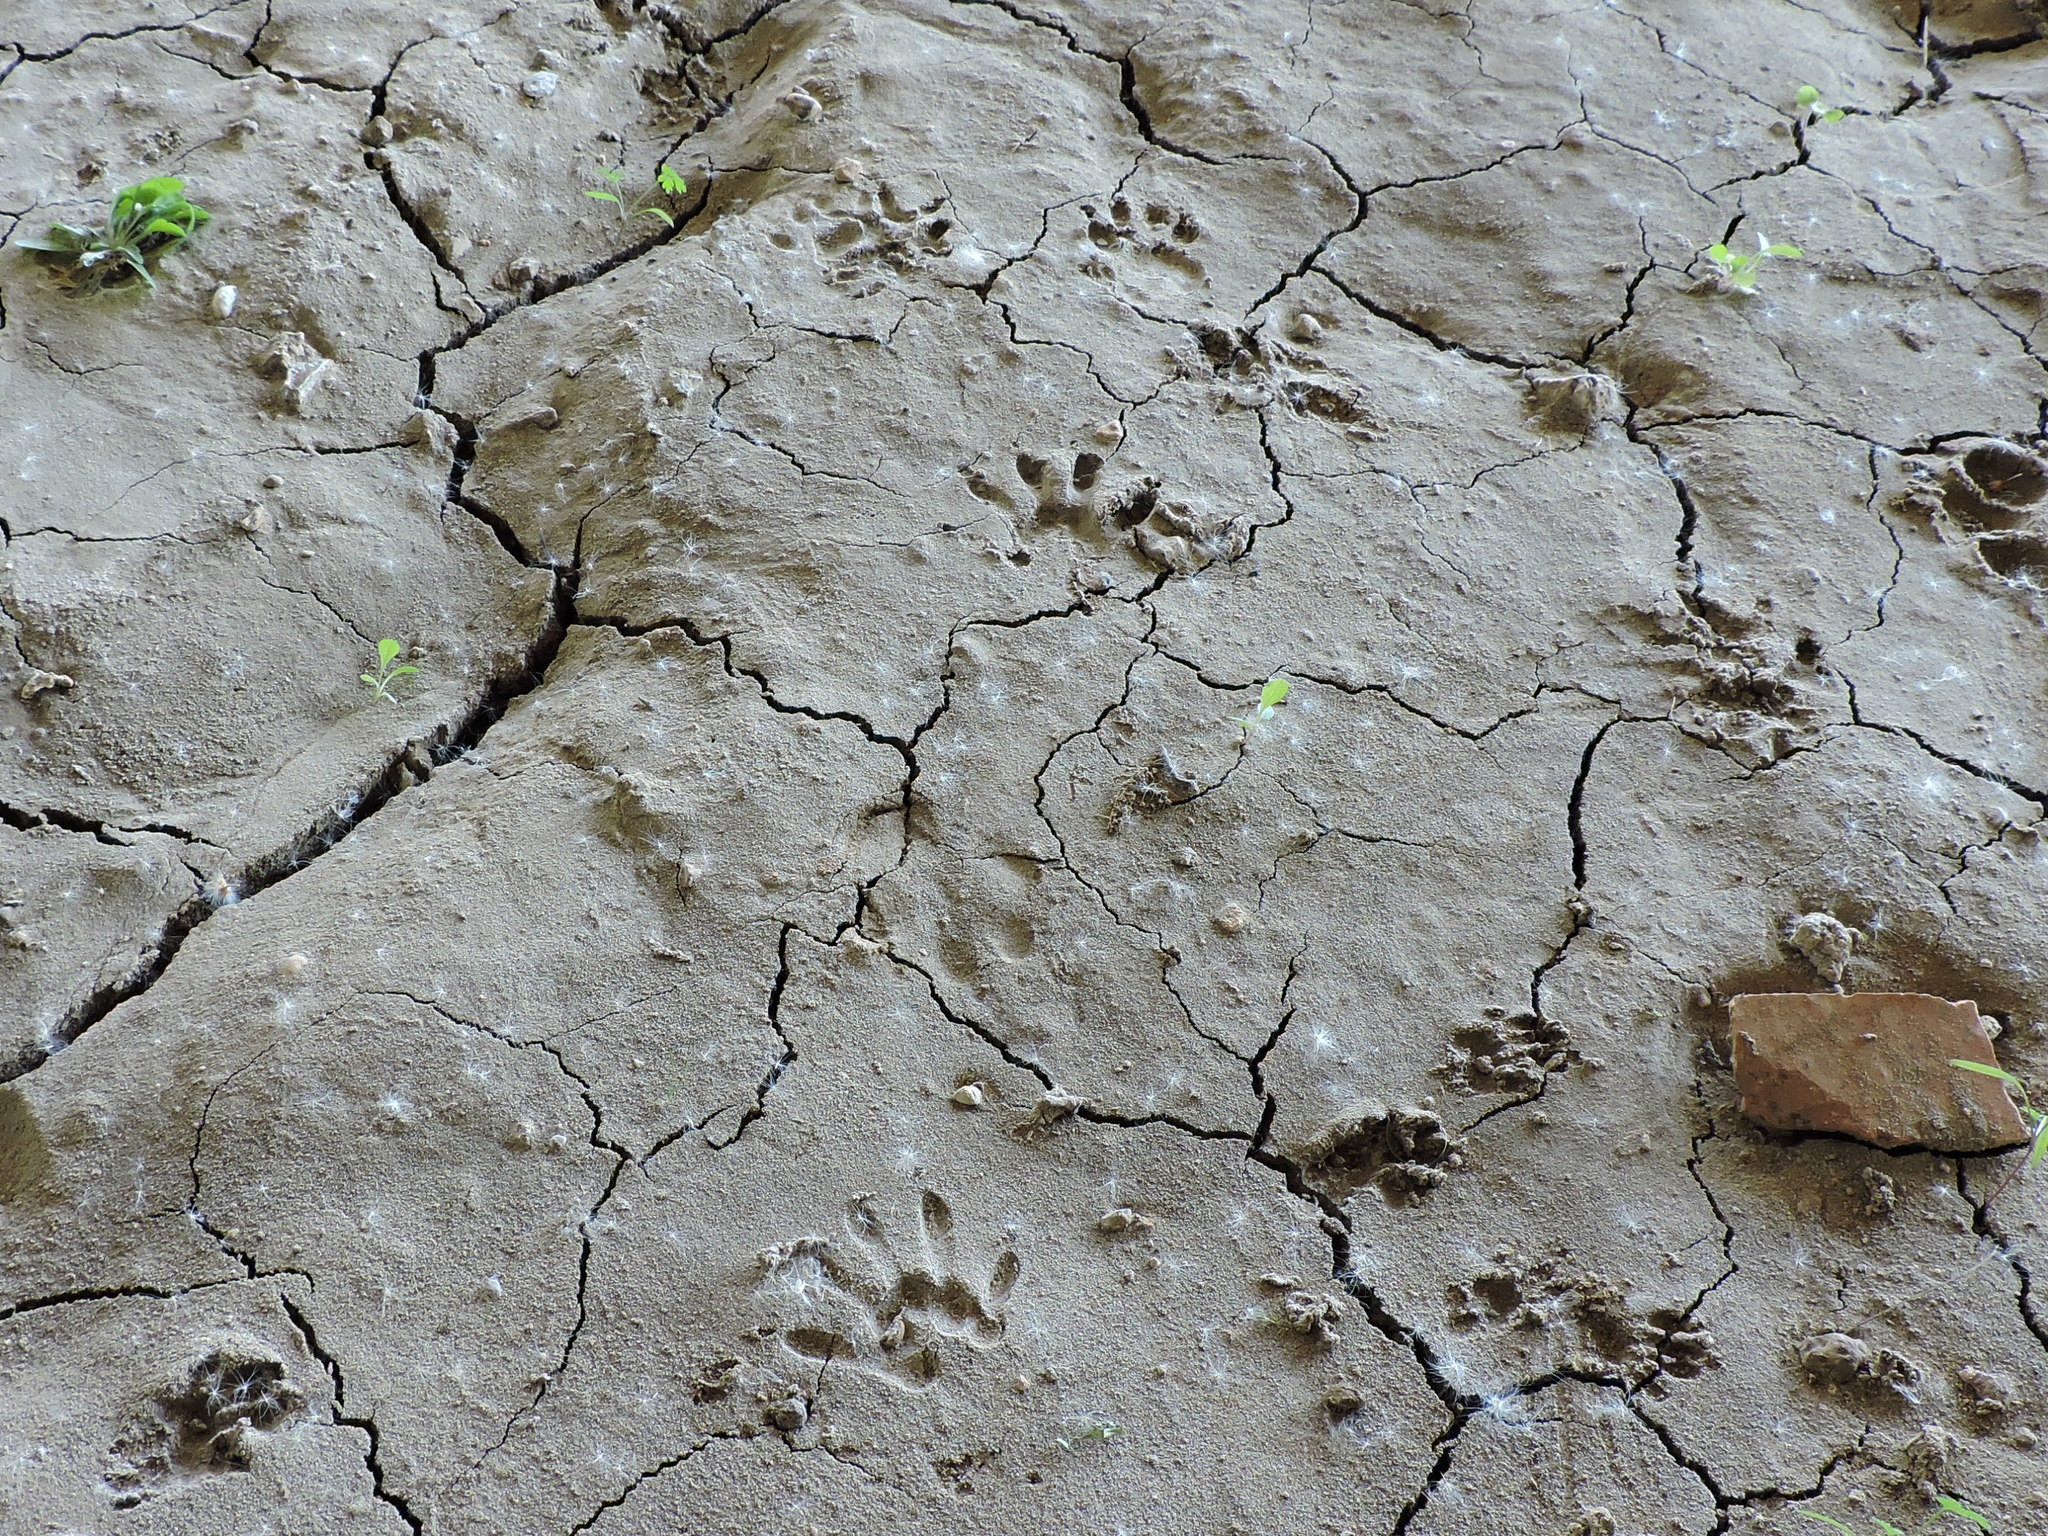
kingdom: Animalia
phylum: Chordata
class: Mammalia
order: Carnivora
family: Procyonidae
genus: Procyon
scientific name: Procyon lotor
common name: Raccoon
